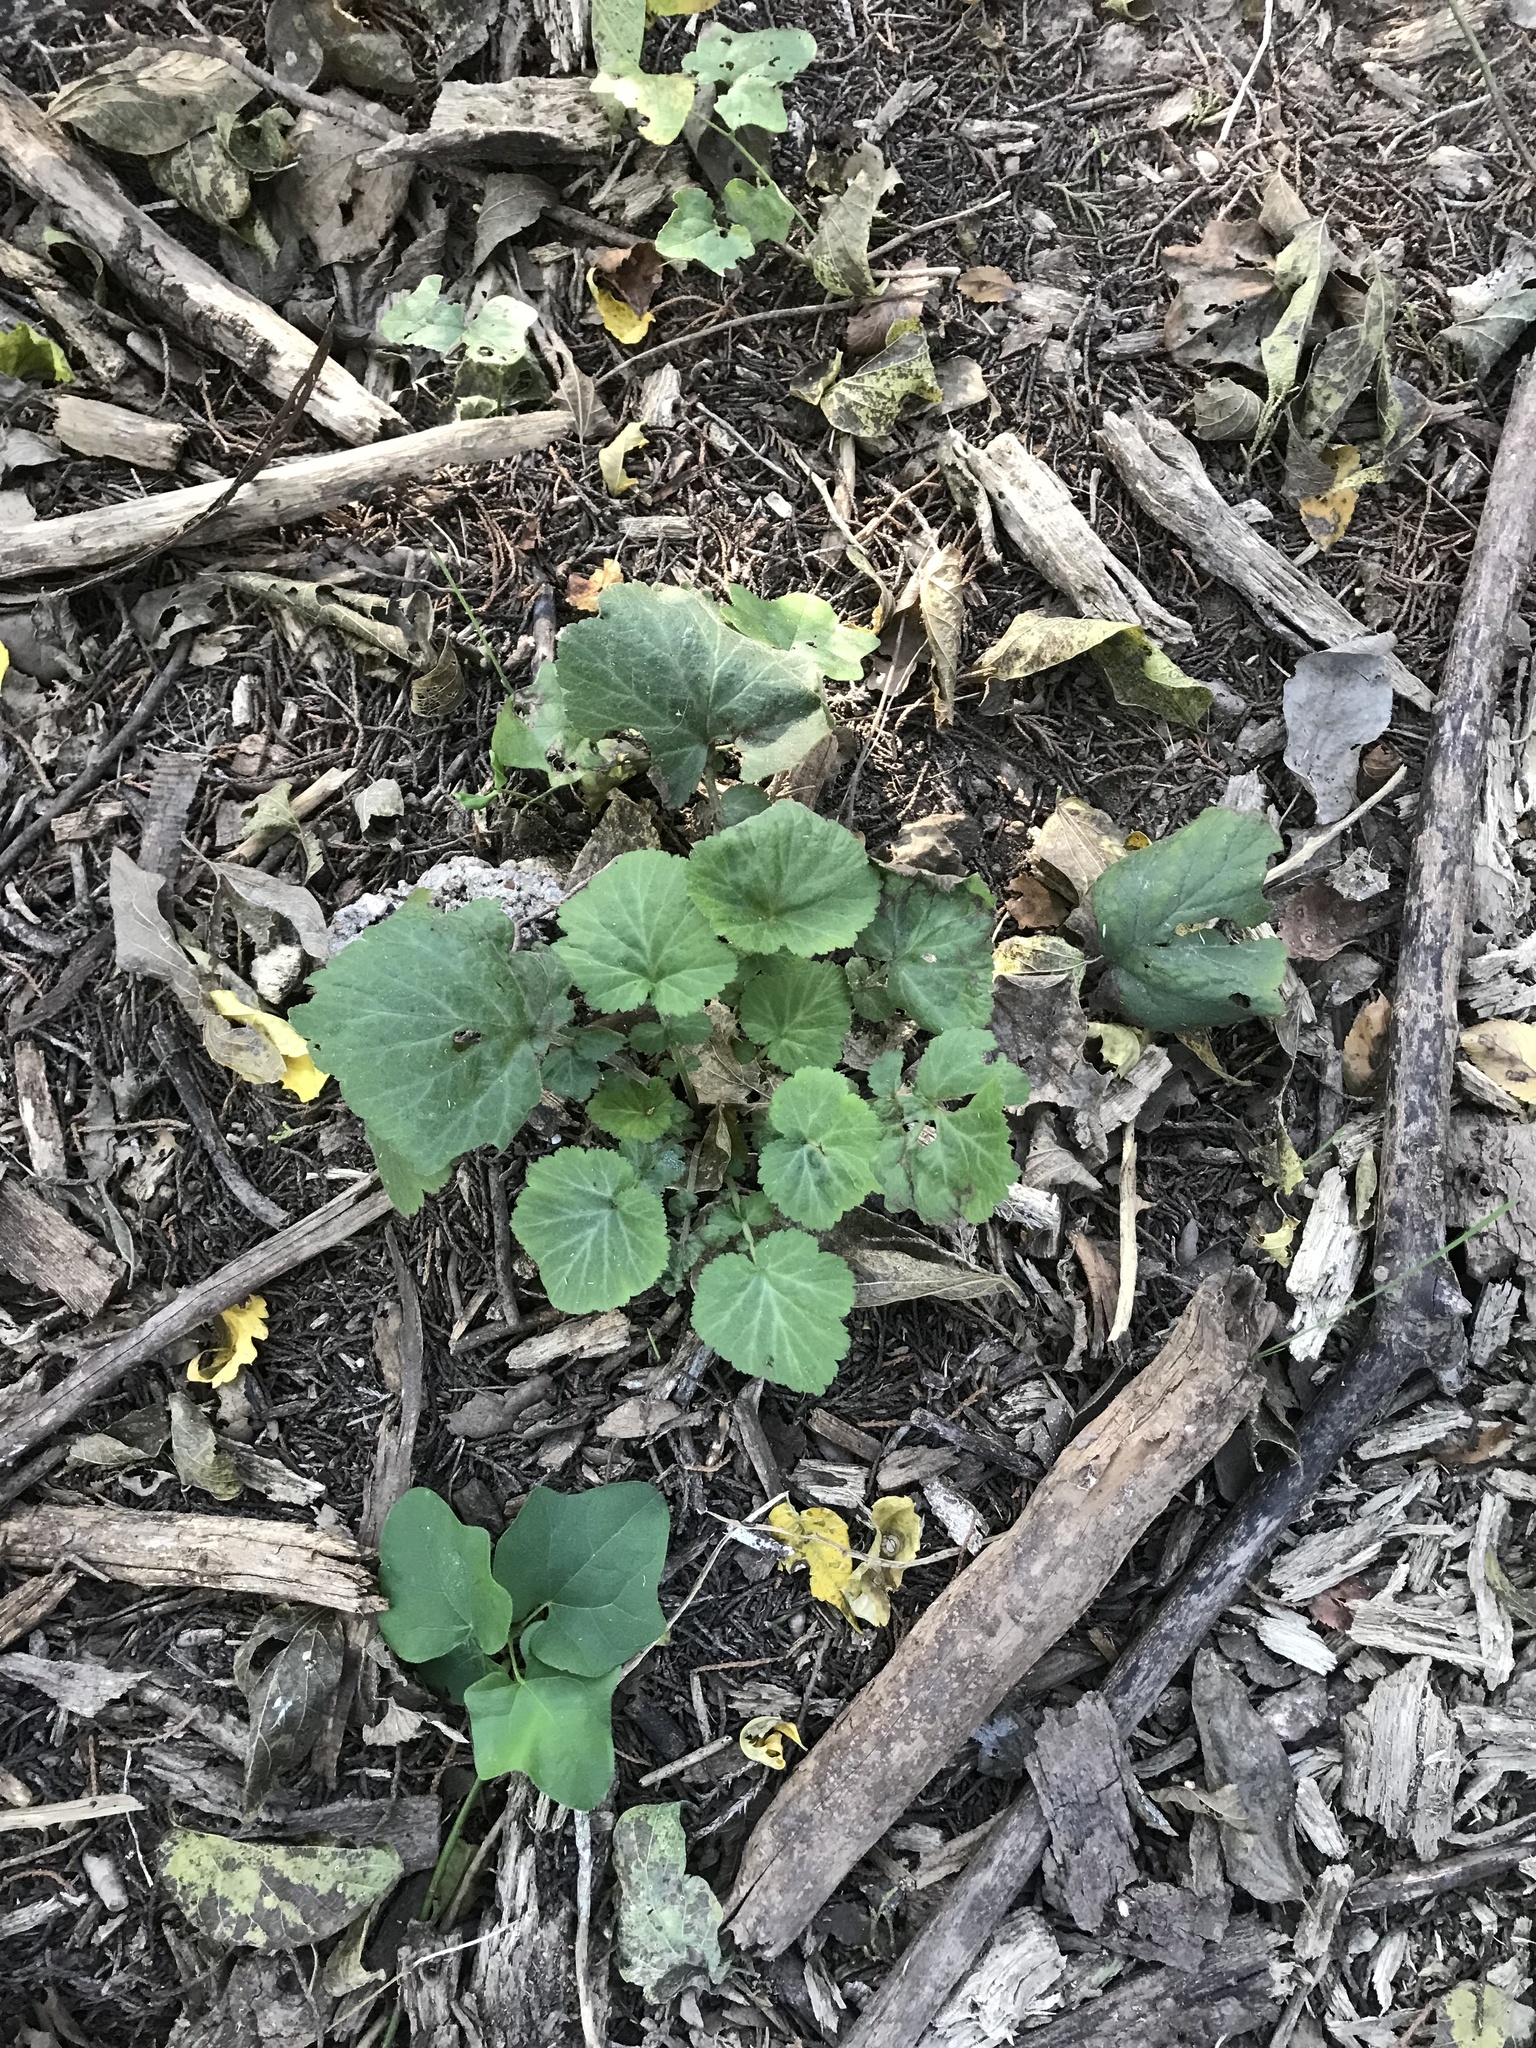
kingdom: Plantae
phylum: Tracheophyta
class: Magnoliopsida
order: Rosales
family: Rosaceae
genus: Geum
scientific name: Geum canadense
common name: White avens
